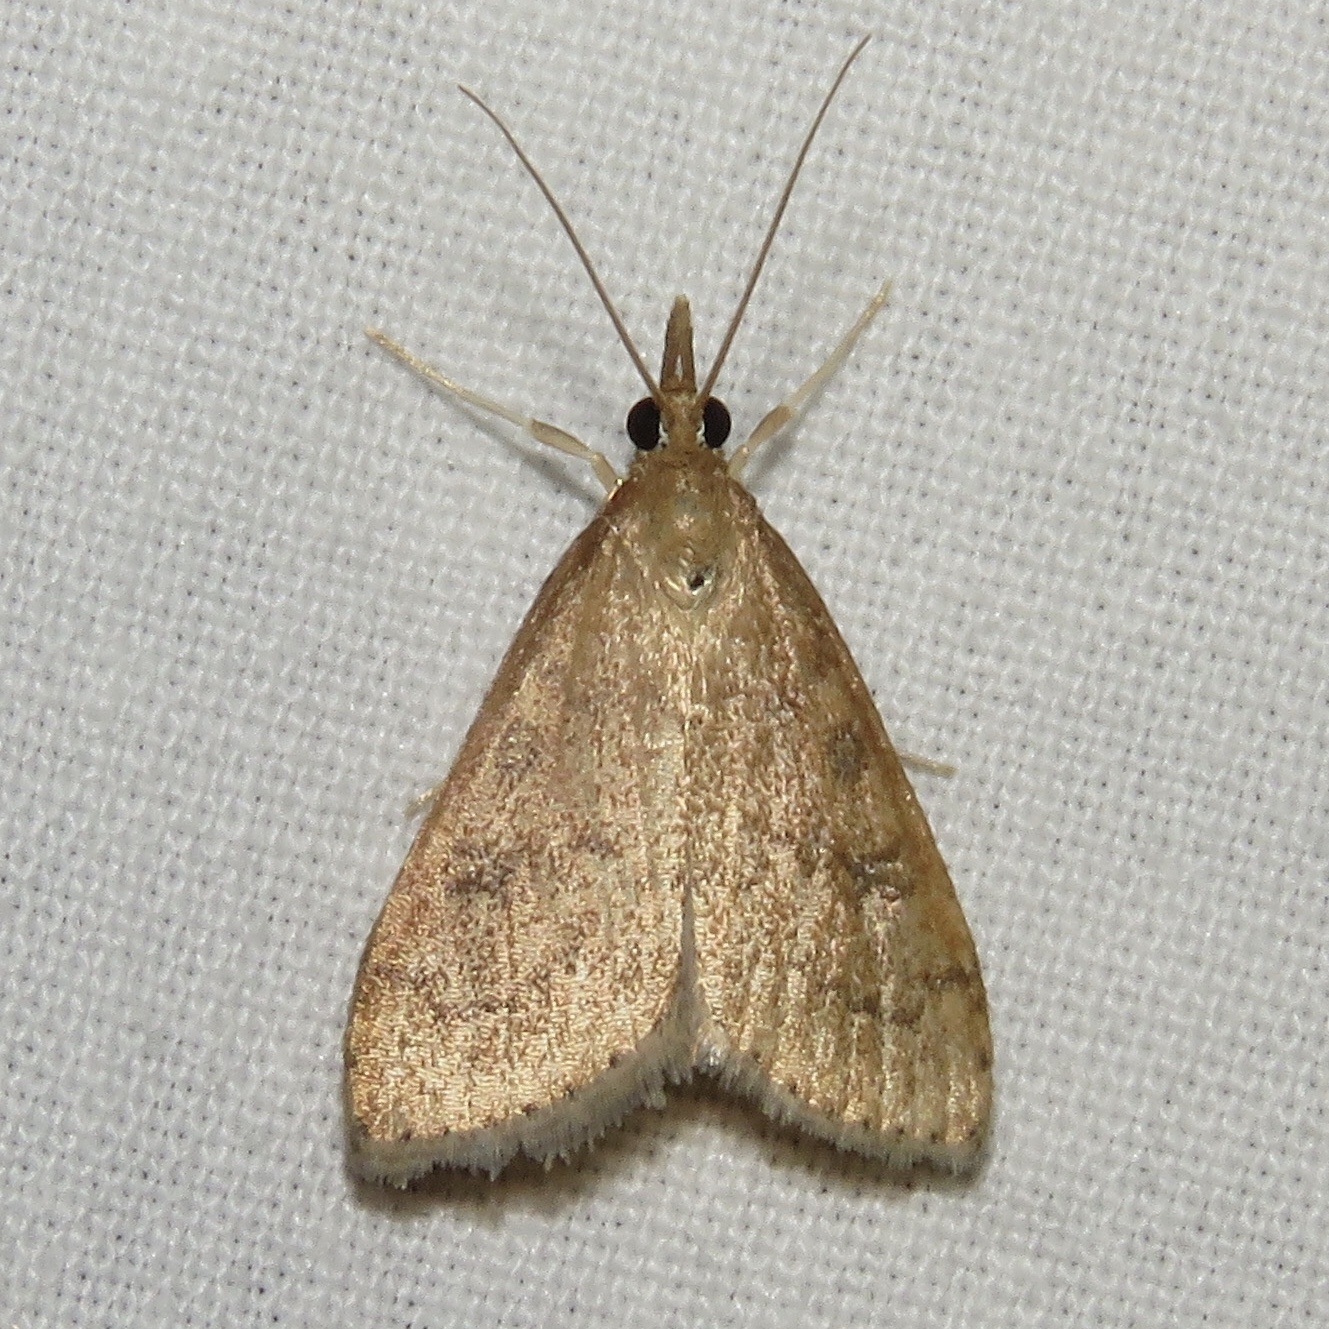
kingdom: Animalia
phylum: Arthropoda
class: Insecta
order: Lepidoptera
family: Crambidae
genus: Udea
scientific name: Udea rubigalis
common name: Celery leaftier moth
